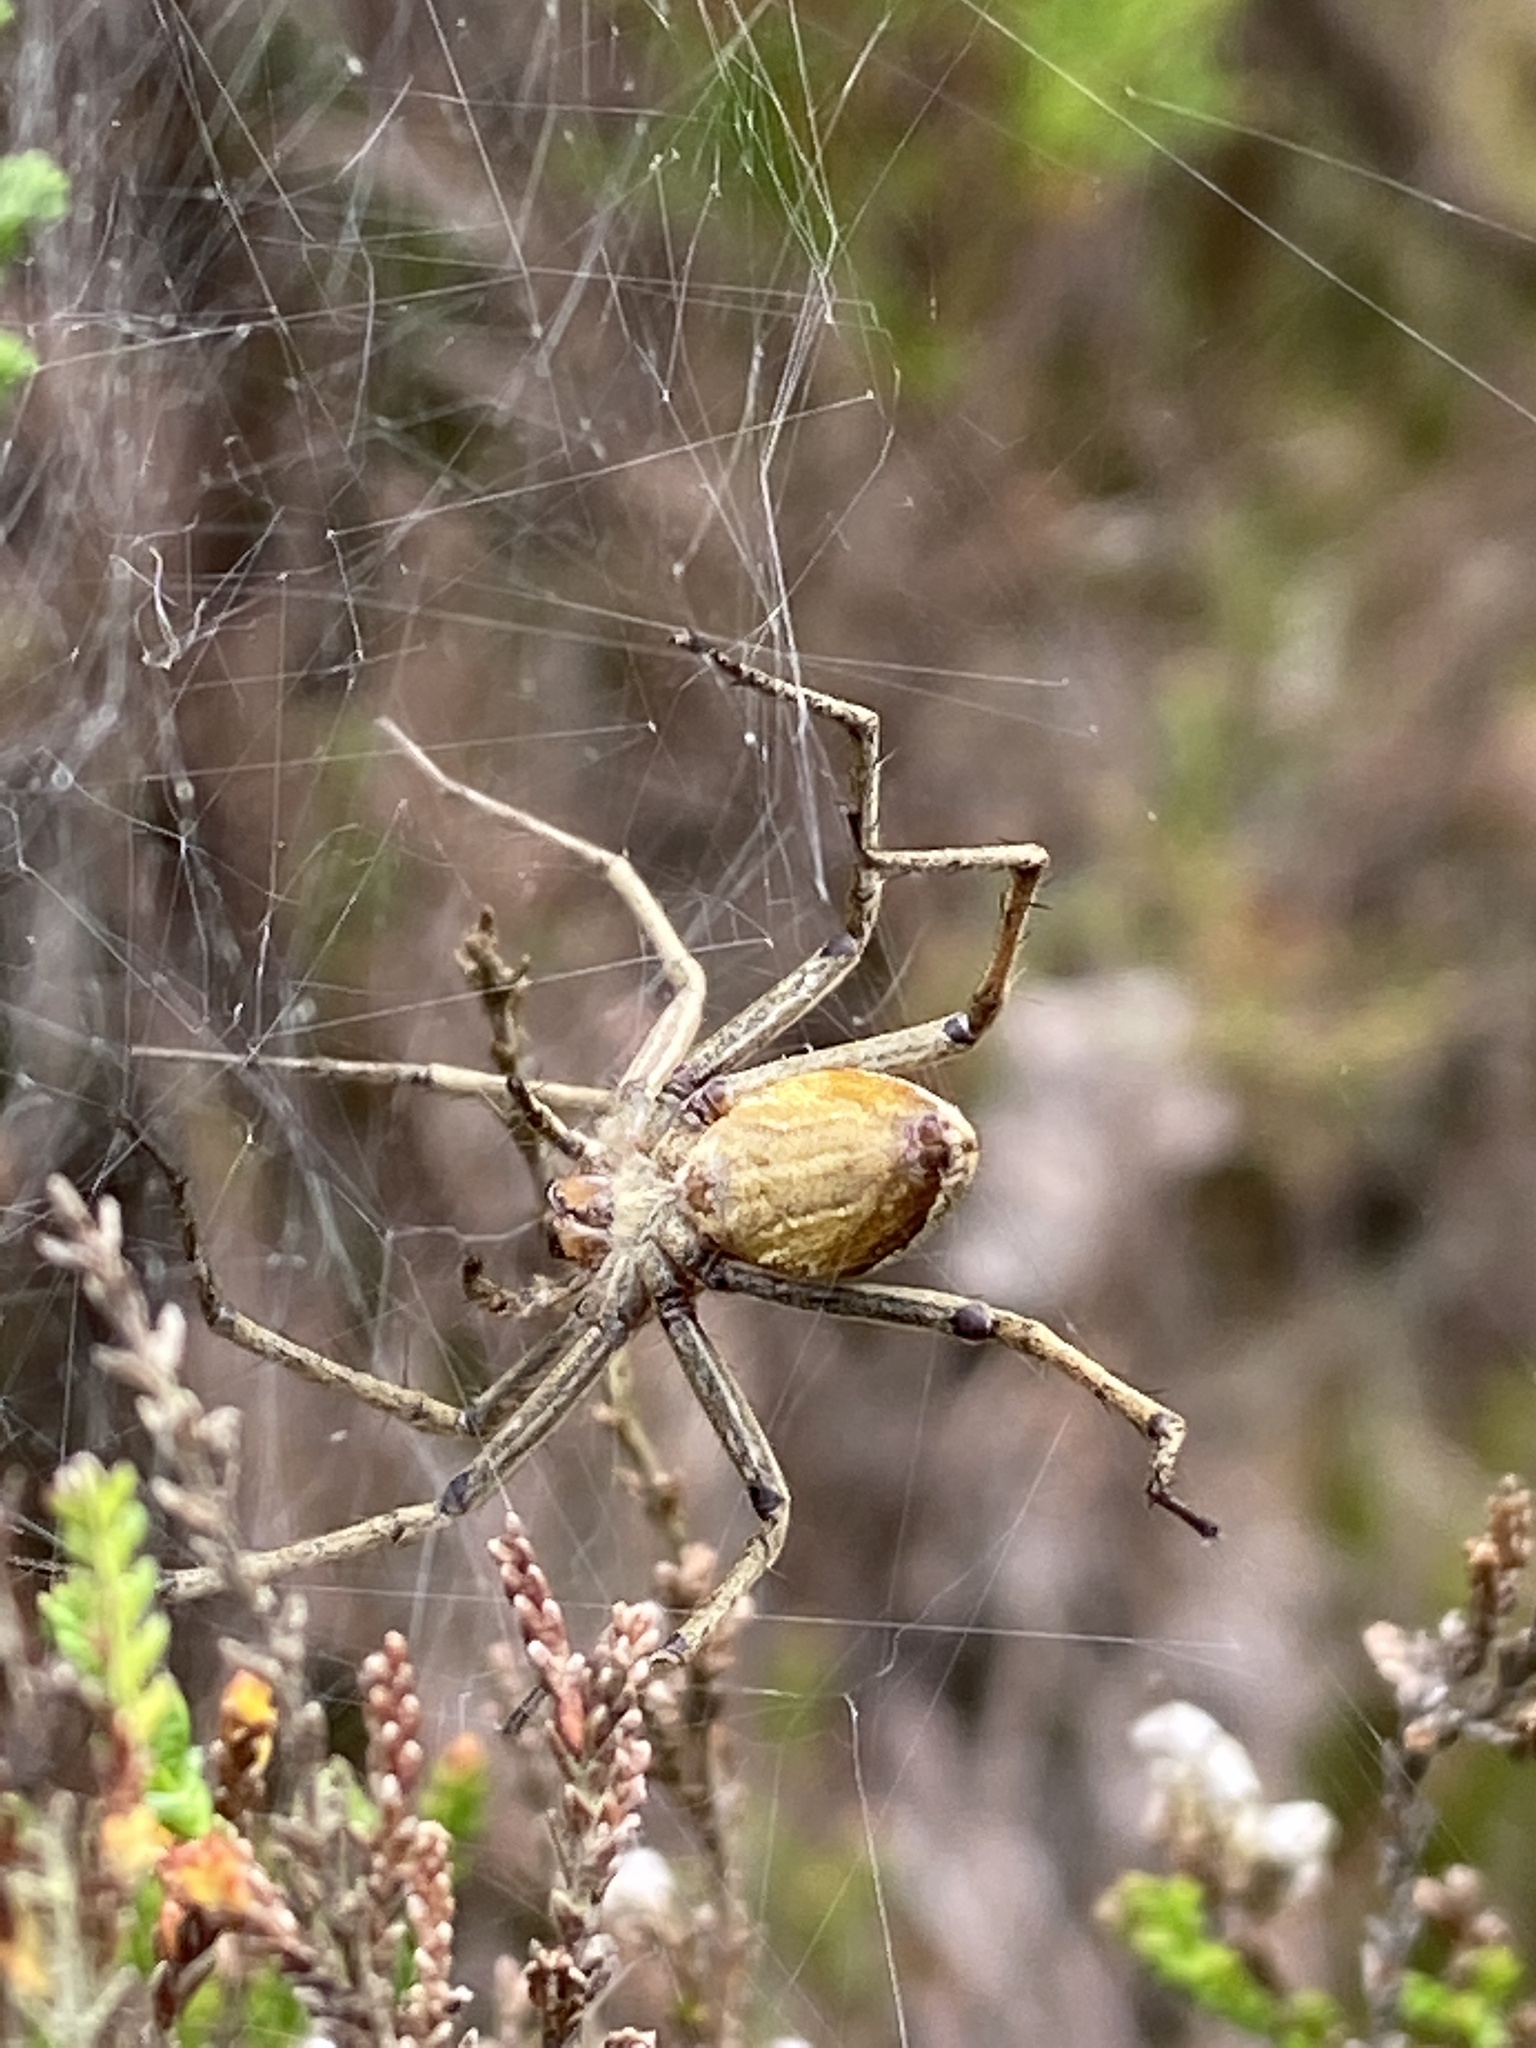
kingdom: Animalia
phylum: Arthropoda
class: Arachnida
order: Araneae
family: Pisauridae
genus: Pisaura
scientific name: Pisaura mirabilis
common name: Tent spider
